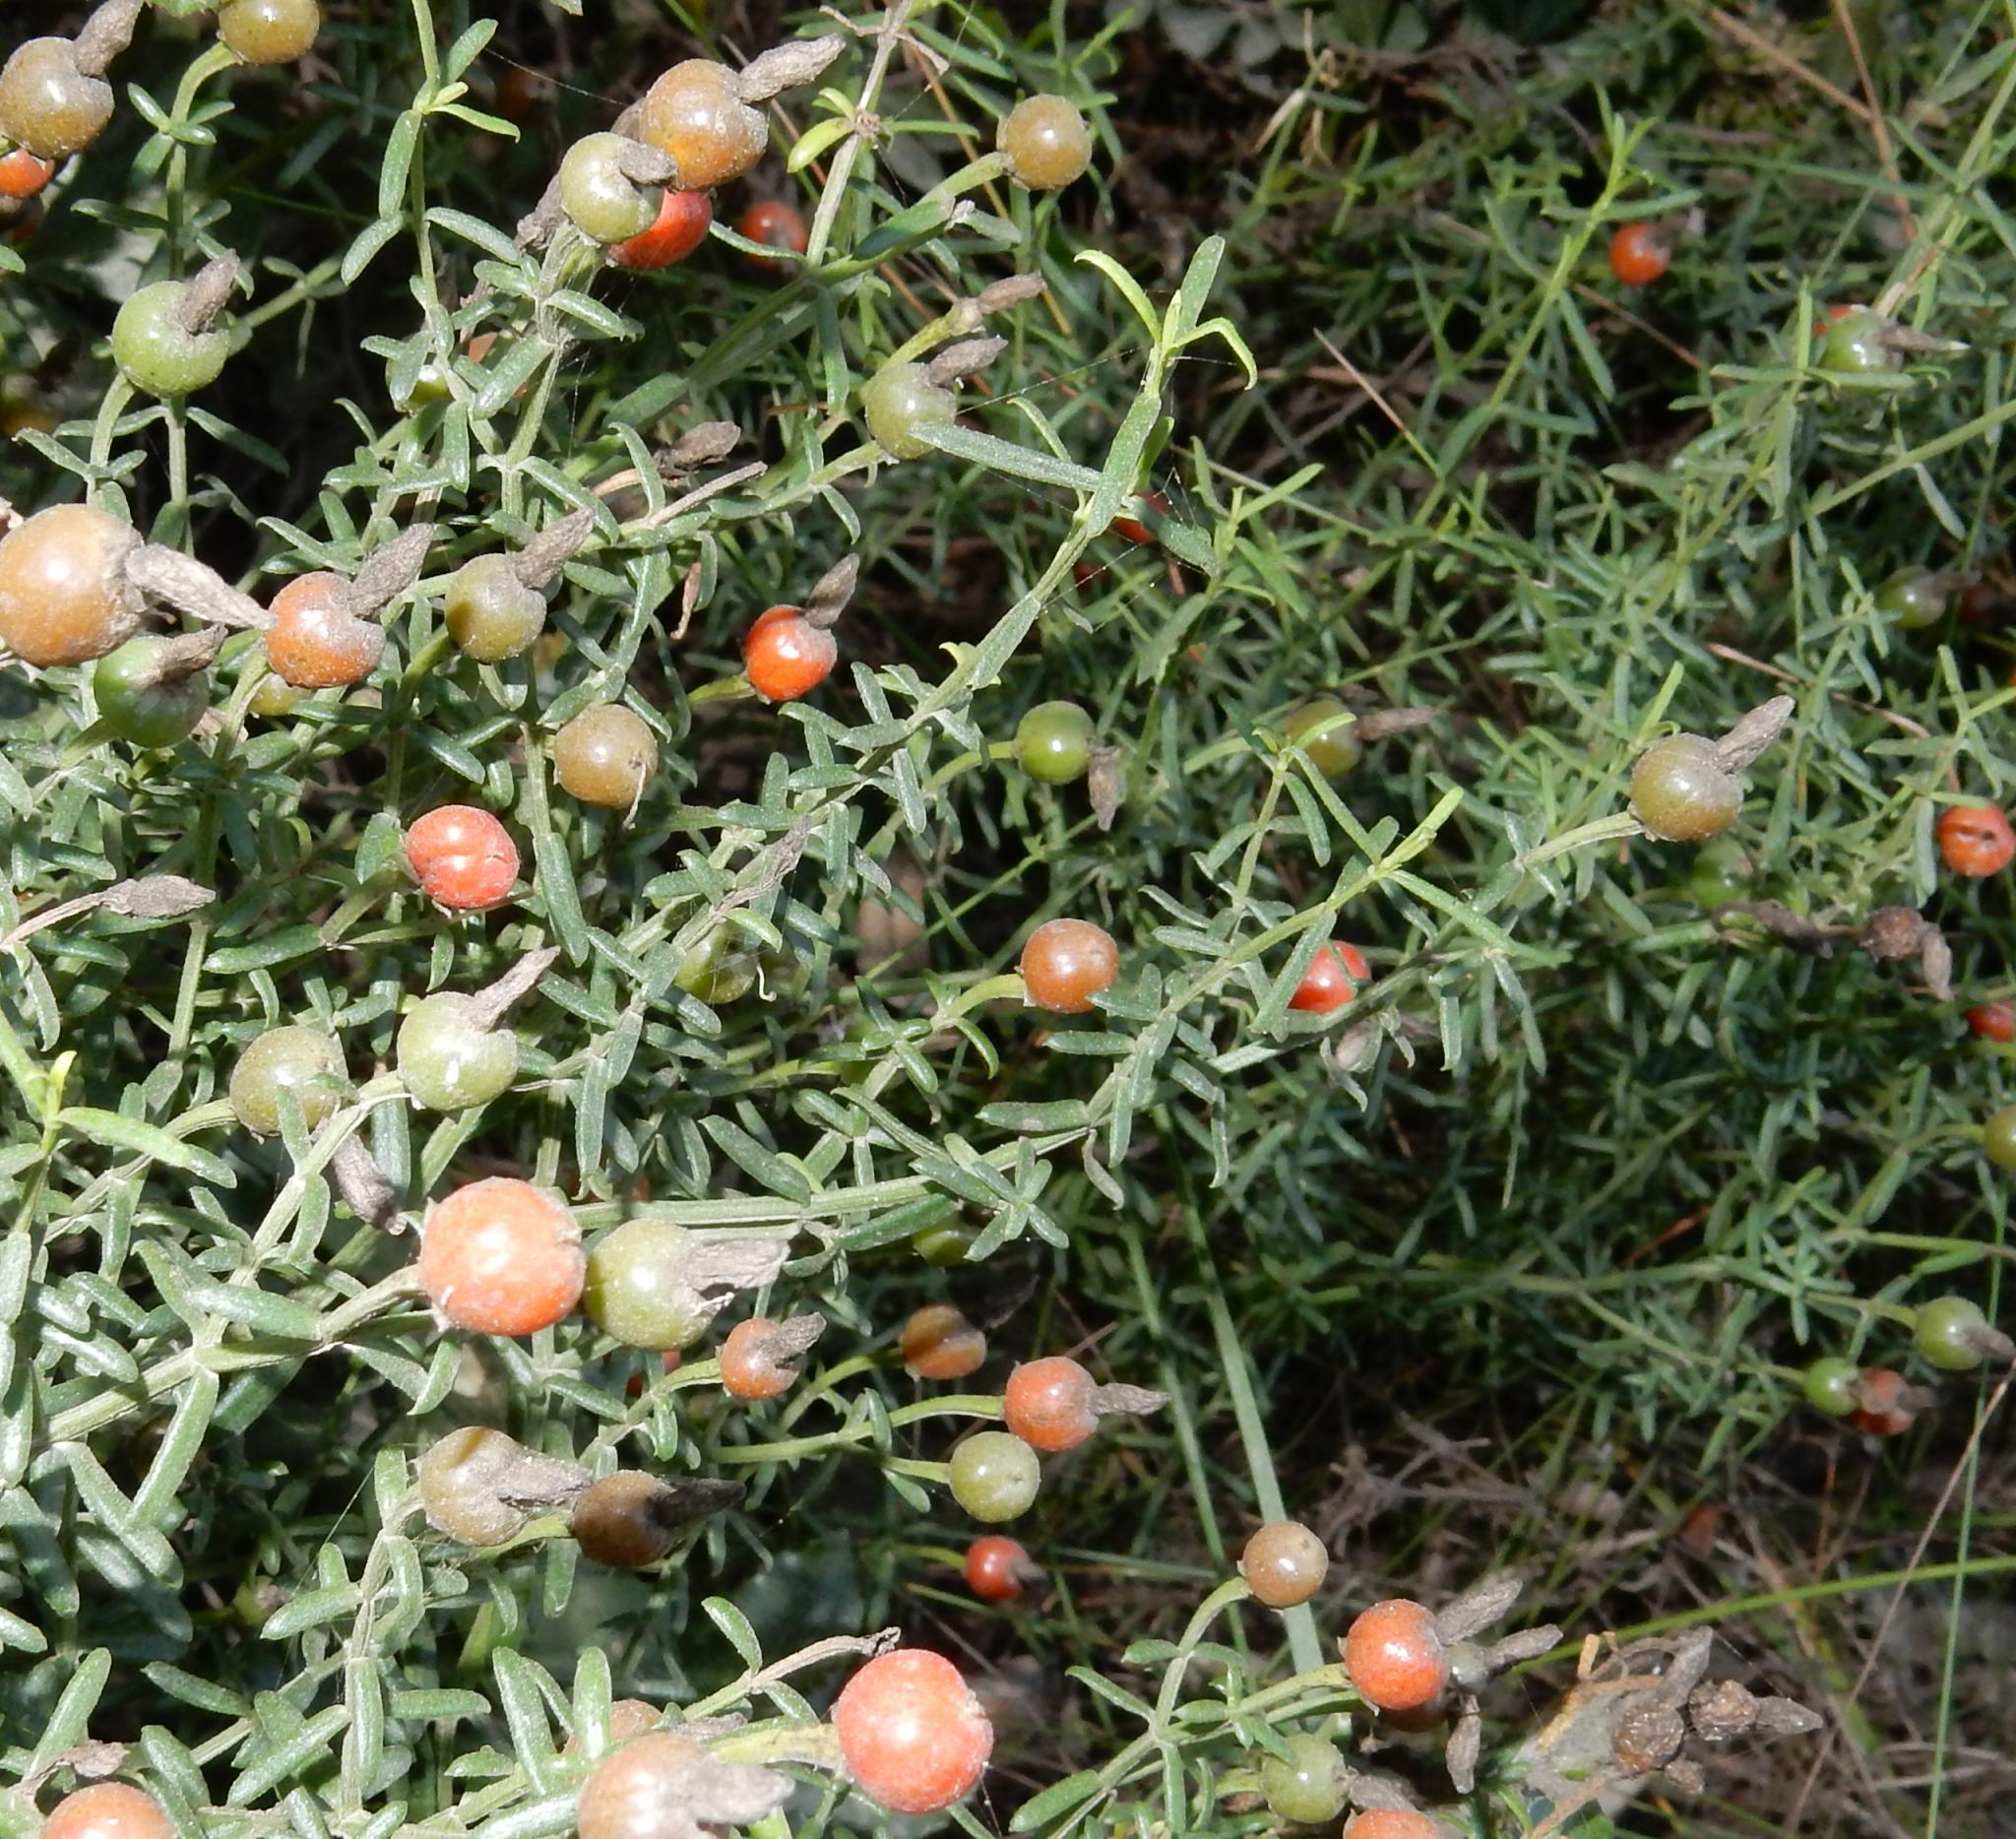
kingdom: Plantae
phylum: Tracheophyta
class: Magnoliopsida
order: Gentianales
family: Gentianaceae
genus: Chironia
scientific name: Chironia baccifera
